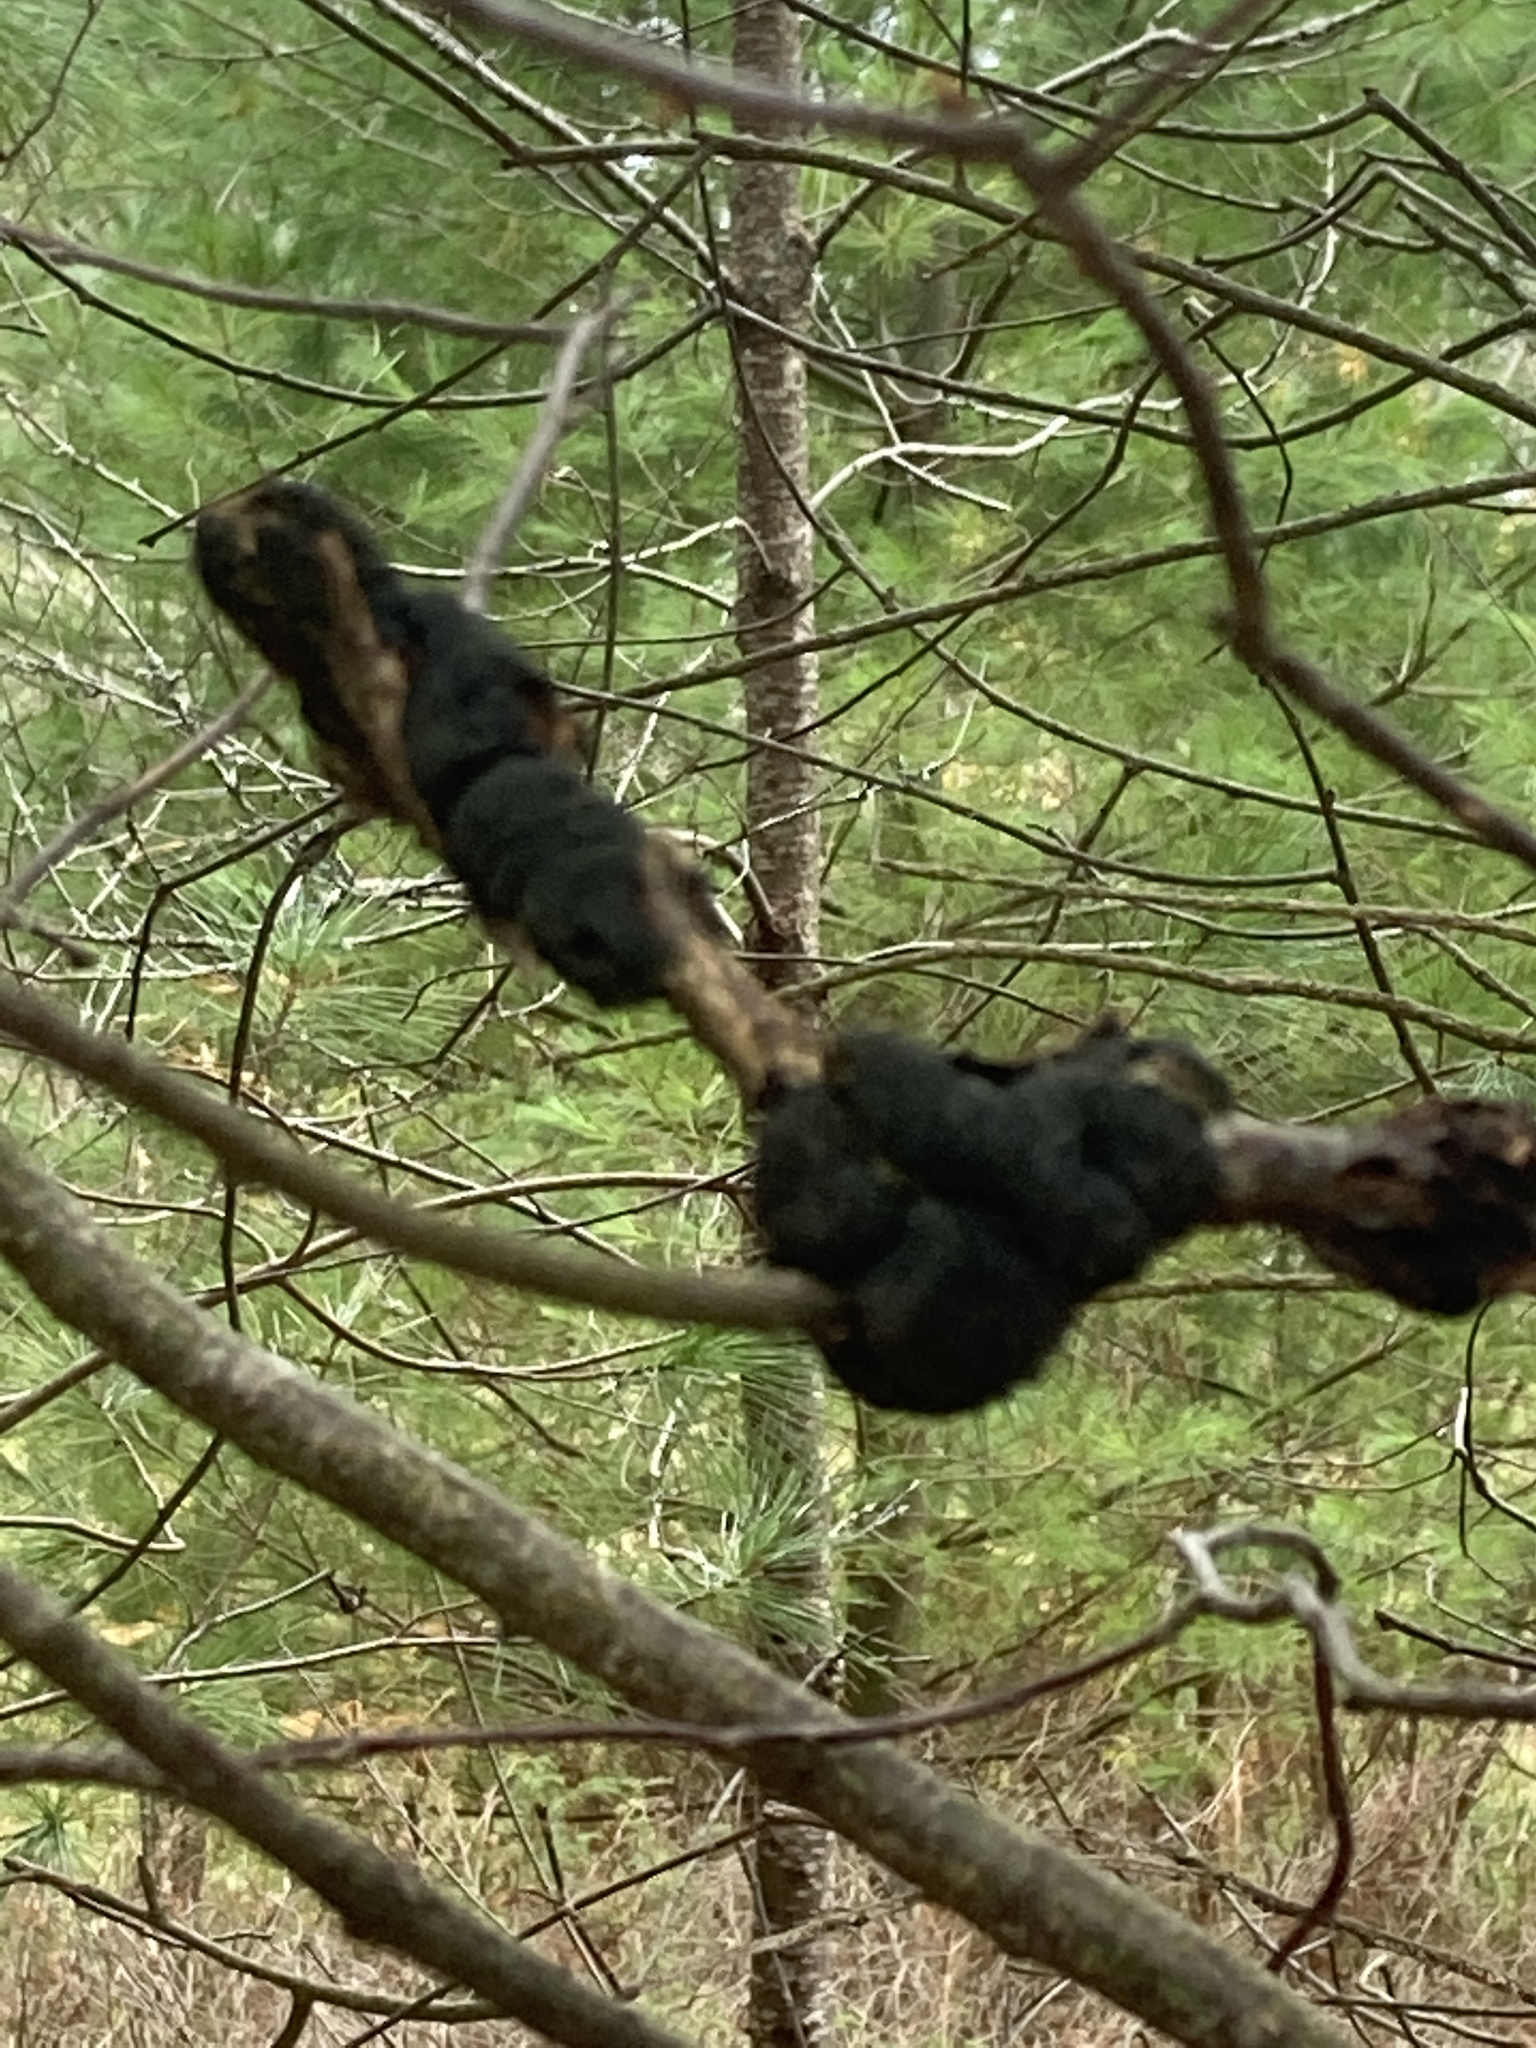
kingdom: Fungi
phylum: Ascomycota
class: Dothideomycetes
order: Venturiales
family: Venturiaceae
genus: Apiosporina
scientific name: Apiosporina morbosa
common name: Black knot
